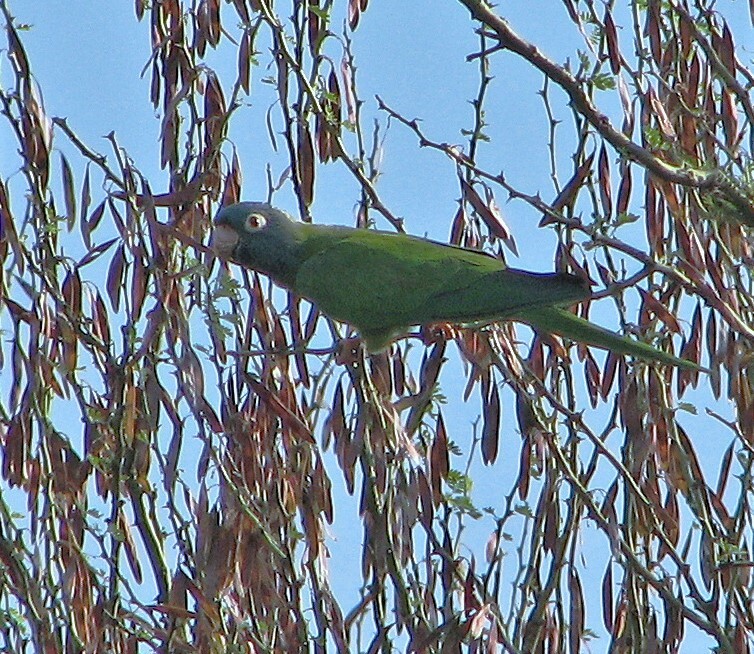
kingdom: Animalia
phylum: Chordata
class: Aves
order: Psittaciformes
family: Psittacidae
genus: Aratinga
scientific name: Aratinga acuticaudata
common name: Blue-crowned parakeet
